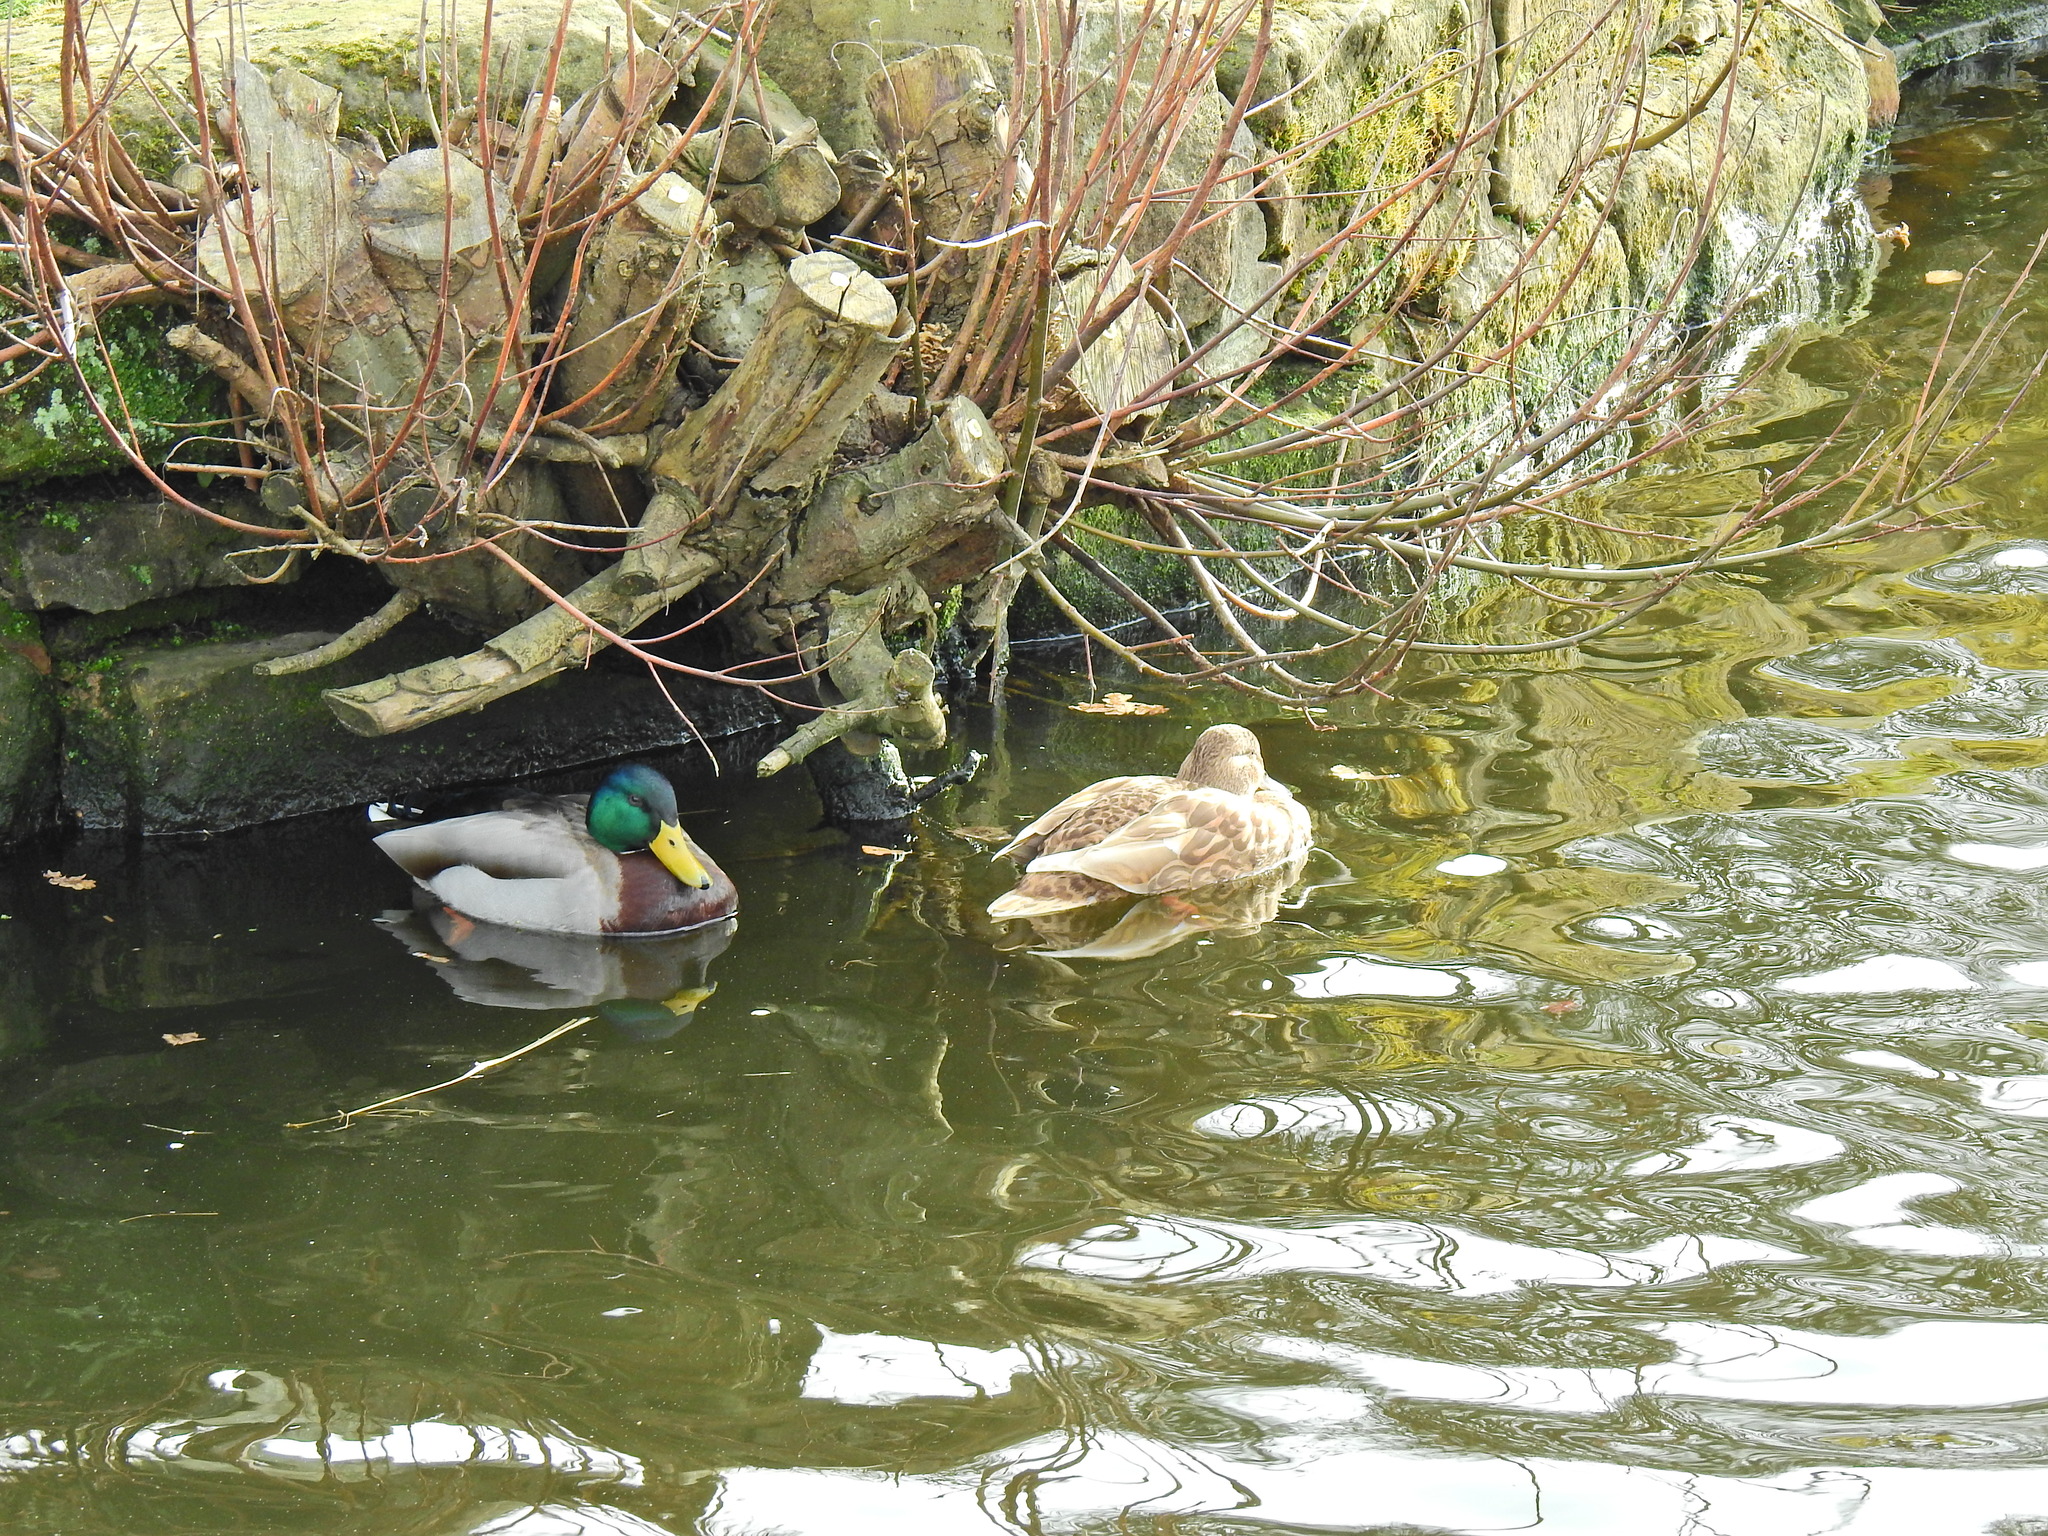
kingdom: Animalia
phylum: Chordata
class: Aves
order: Anseriformes
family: Anatidae
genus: Anas
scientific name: Anas platyrhynchos
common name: Mallard
